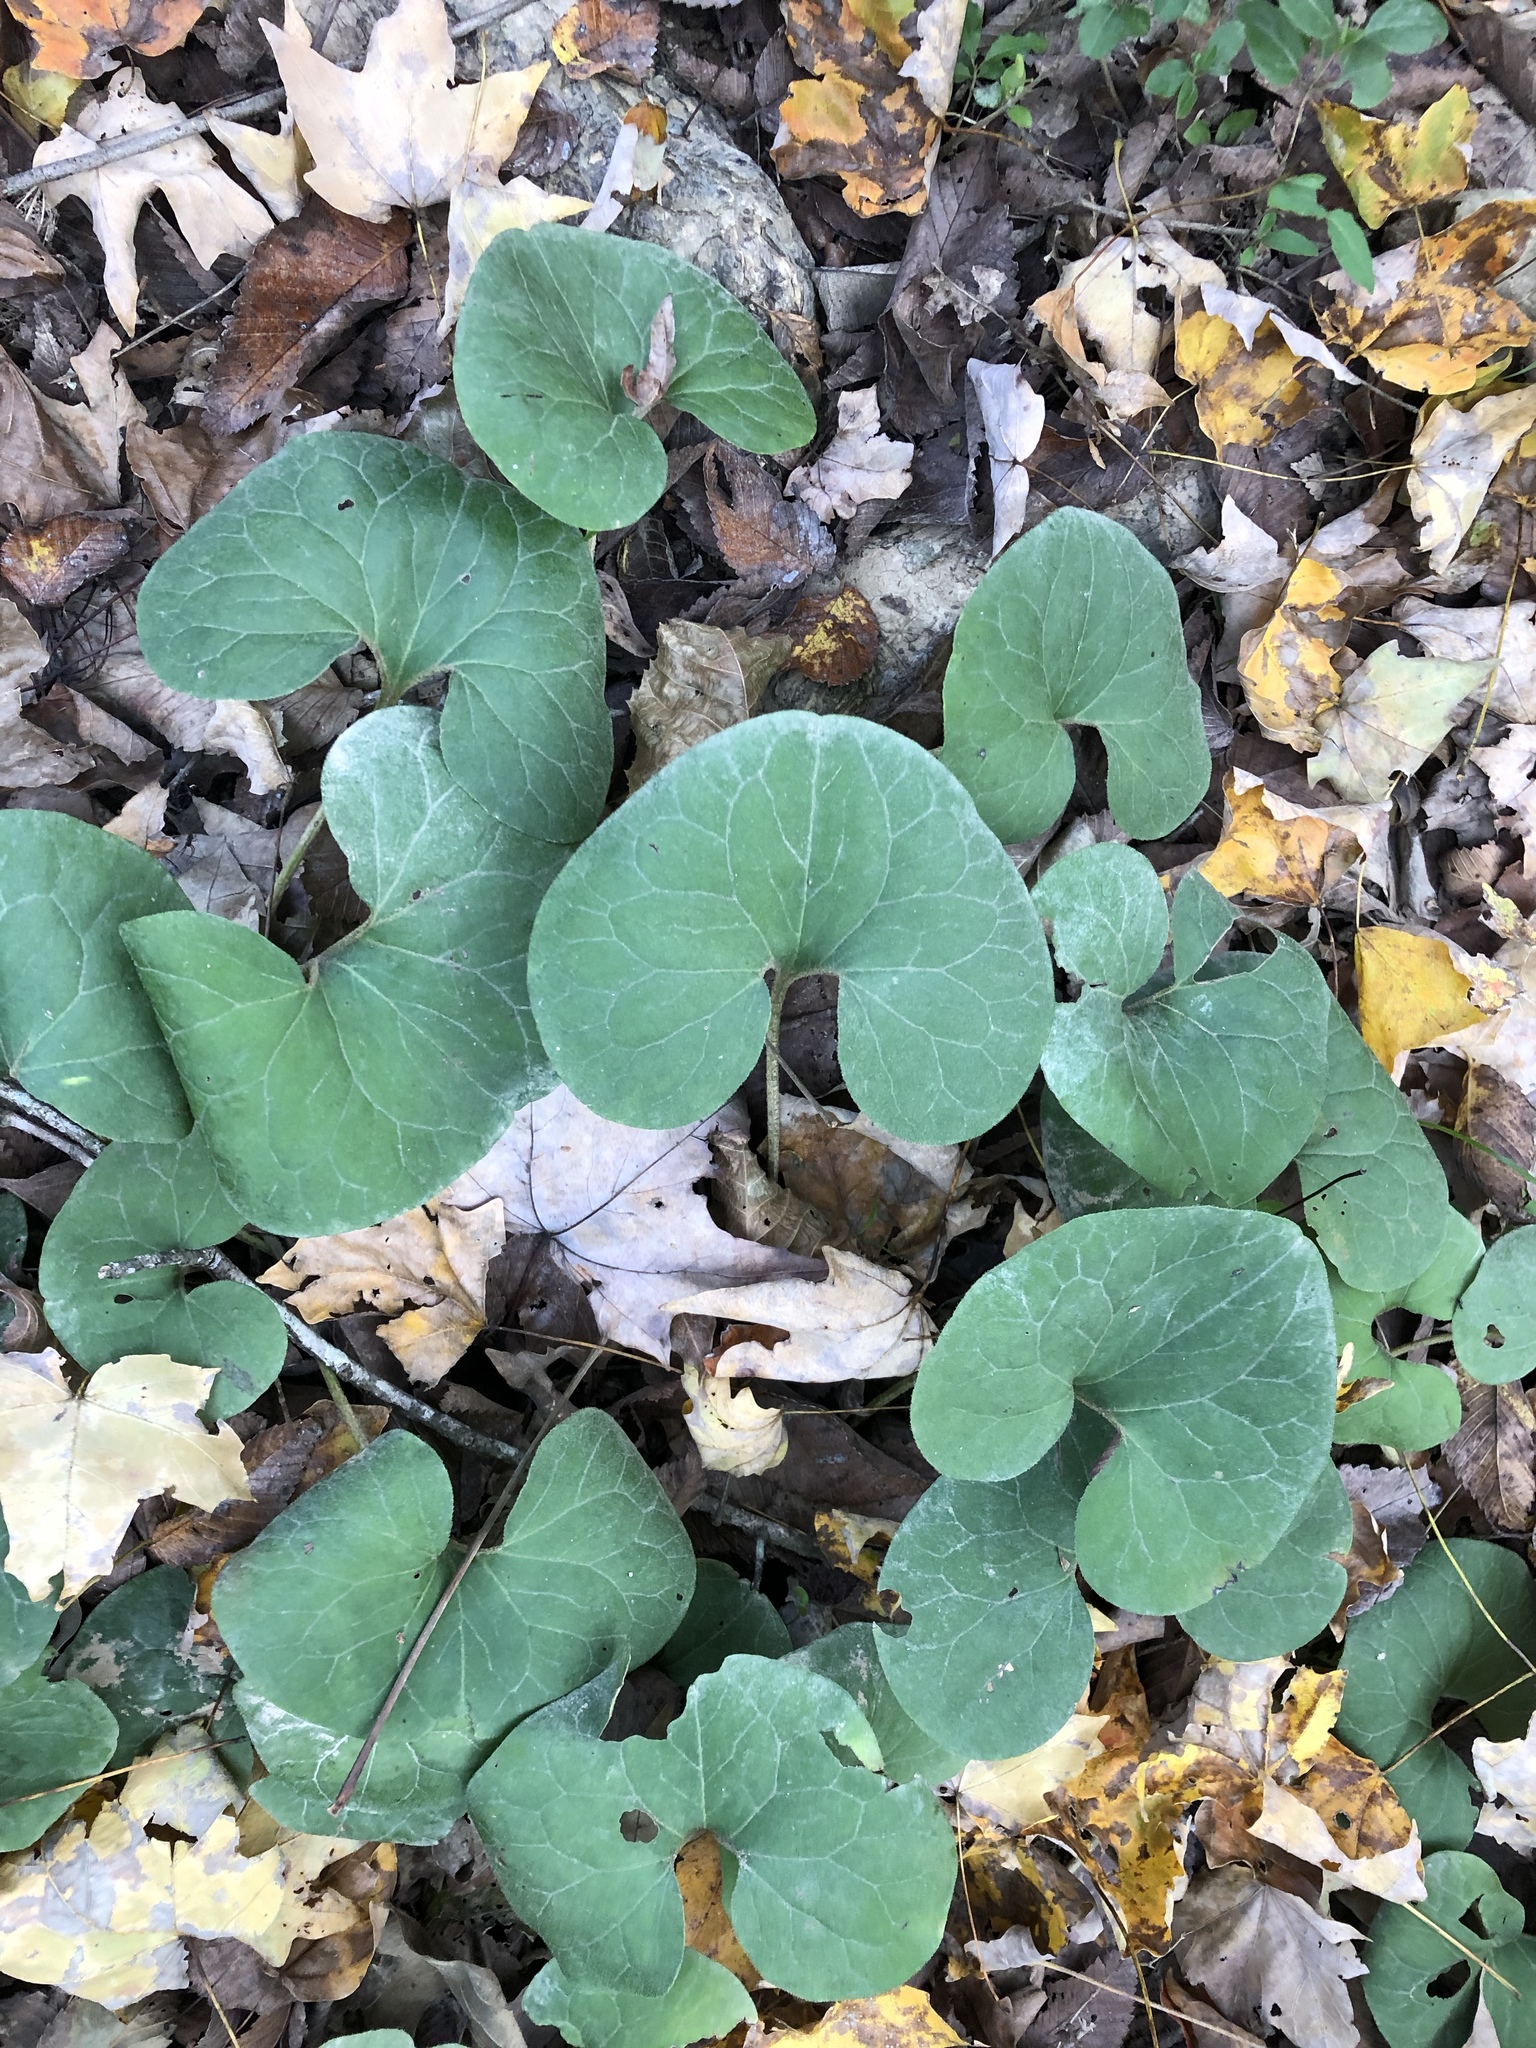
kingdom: Plantae
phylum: Tracheophyta
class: Magnoliopsida
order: Piperales
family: Aristolochiaceae
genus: Asarum
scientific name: Asarum canadense
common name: Wild ginger
